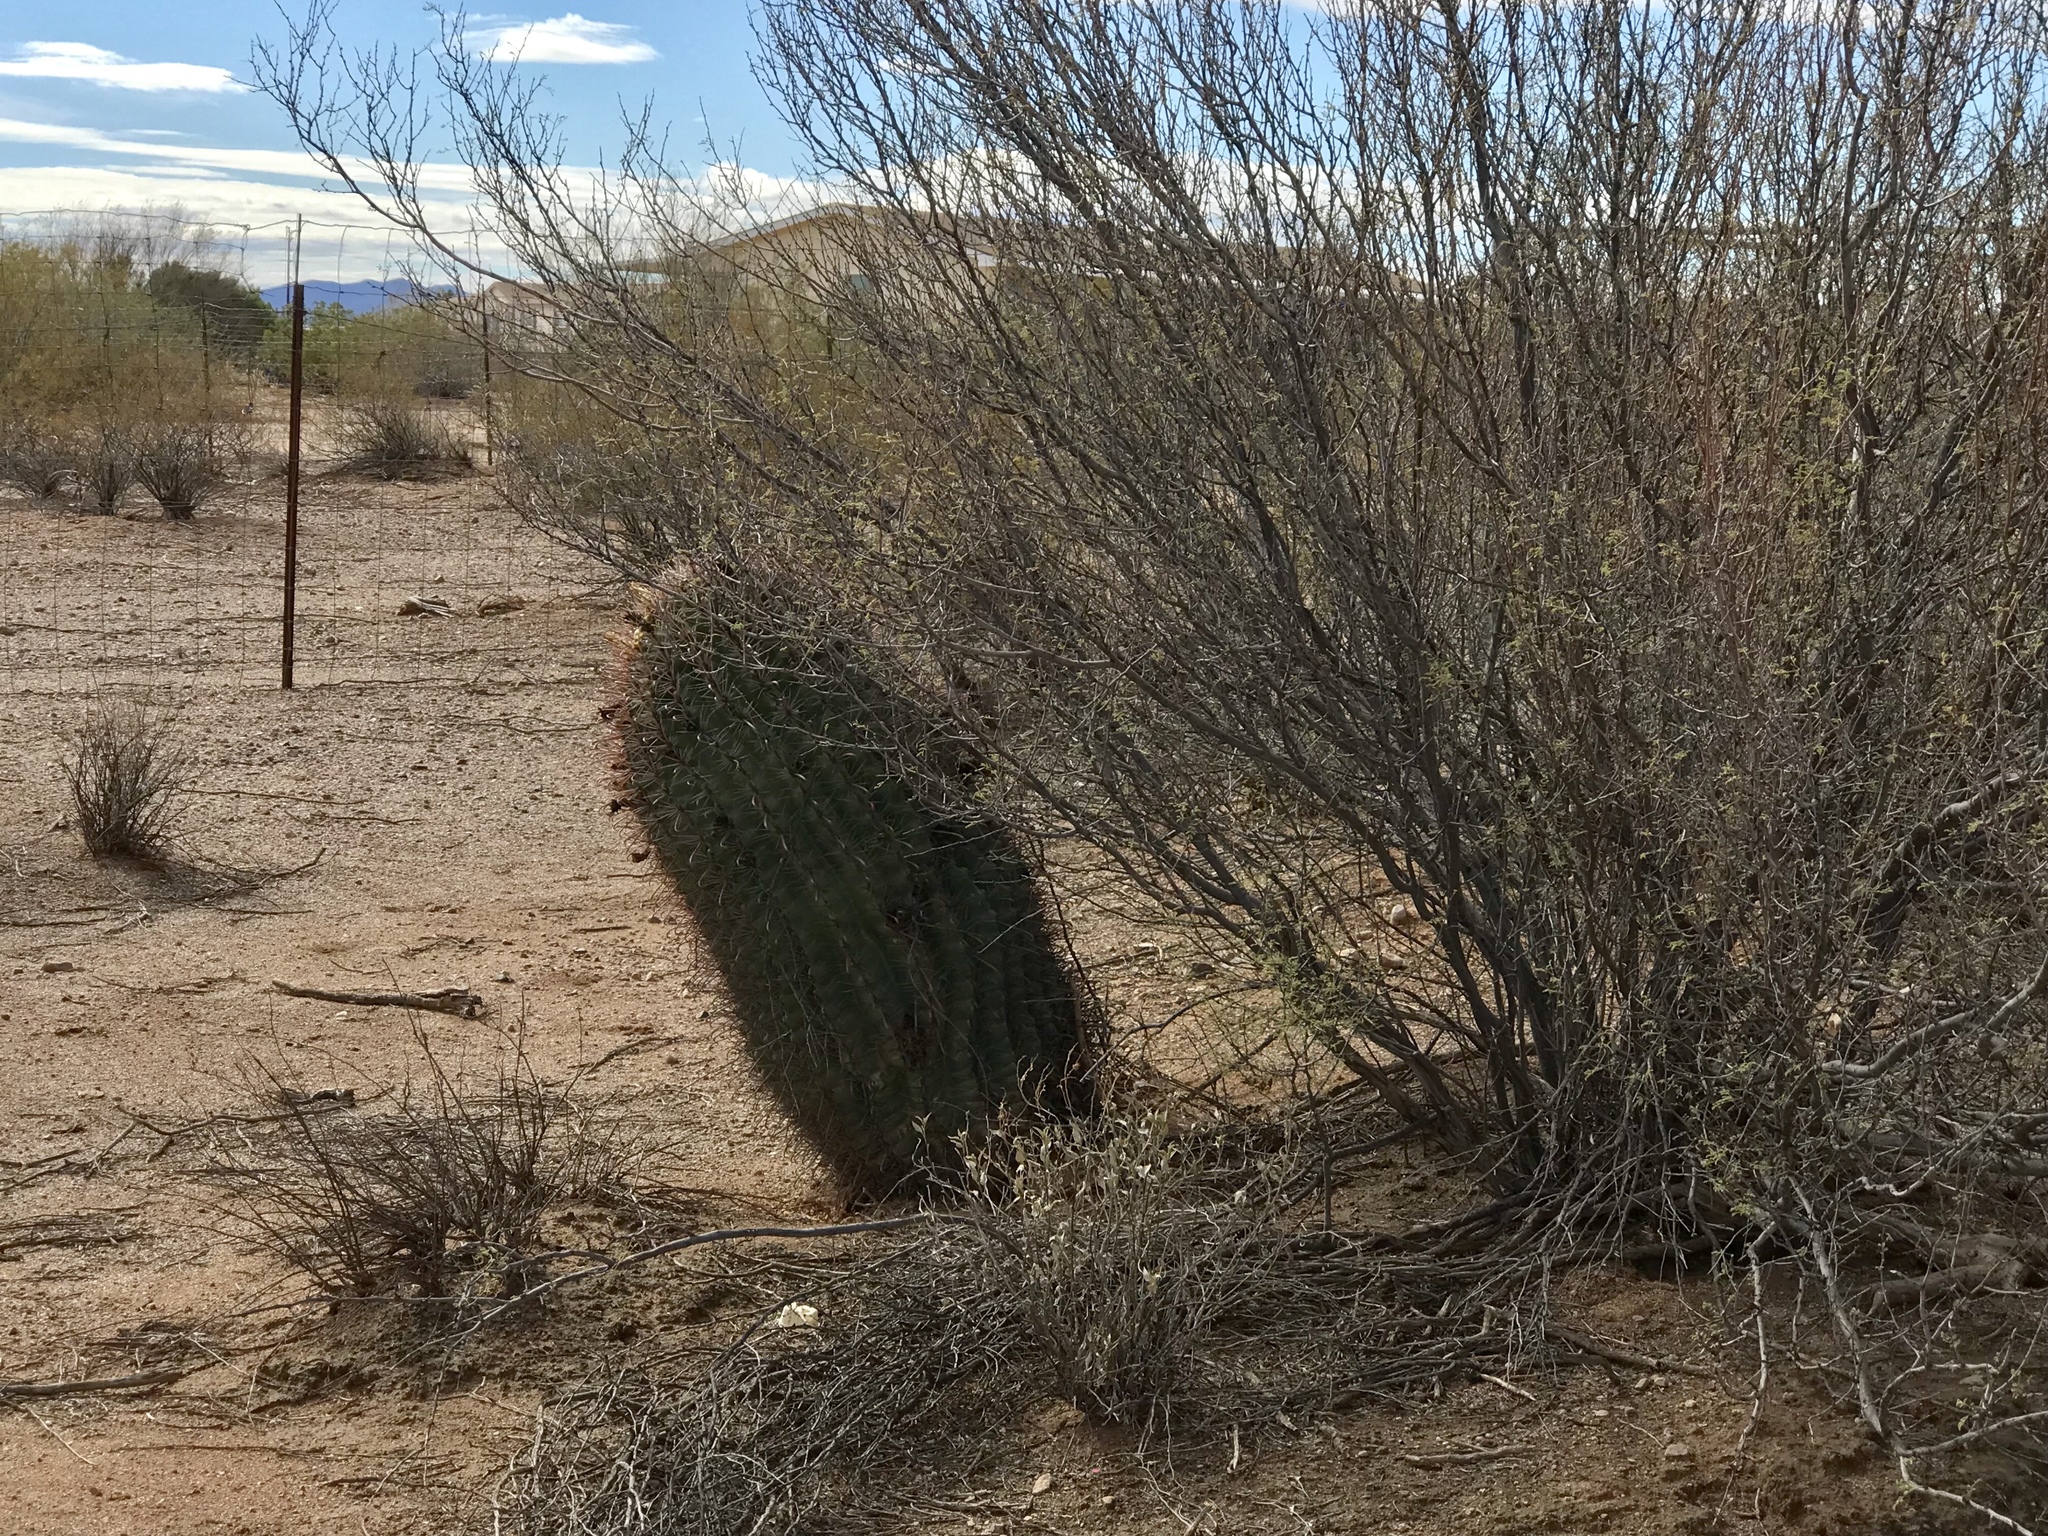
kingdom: Plantae
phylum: Tracheophyta
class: Magnoliopsida
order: Caryophyllales
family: Cactaceae
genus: Ferocactus
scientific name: Ferocactus wislizeni
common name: Candy barrel cactus
